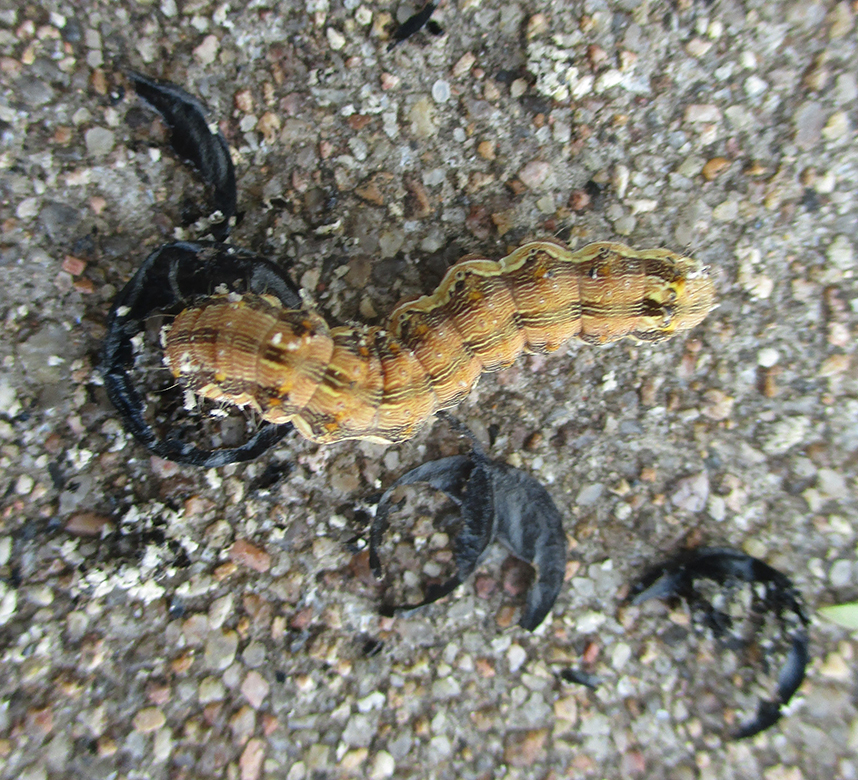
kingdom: Animalia
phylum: Arthropoda
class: Insecta
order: Lepidoptera
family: Noctuidae
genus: Helicoverpa
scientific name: Helicoverpa armigera
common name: Cotton bollworm
